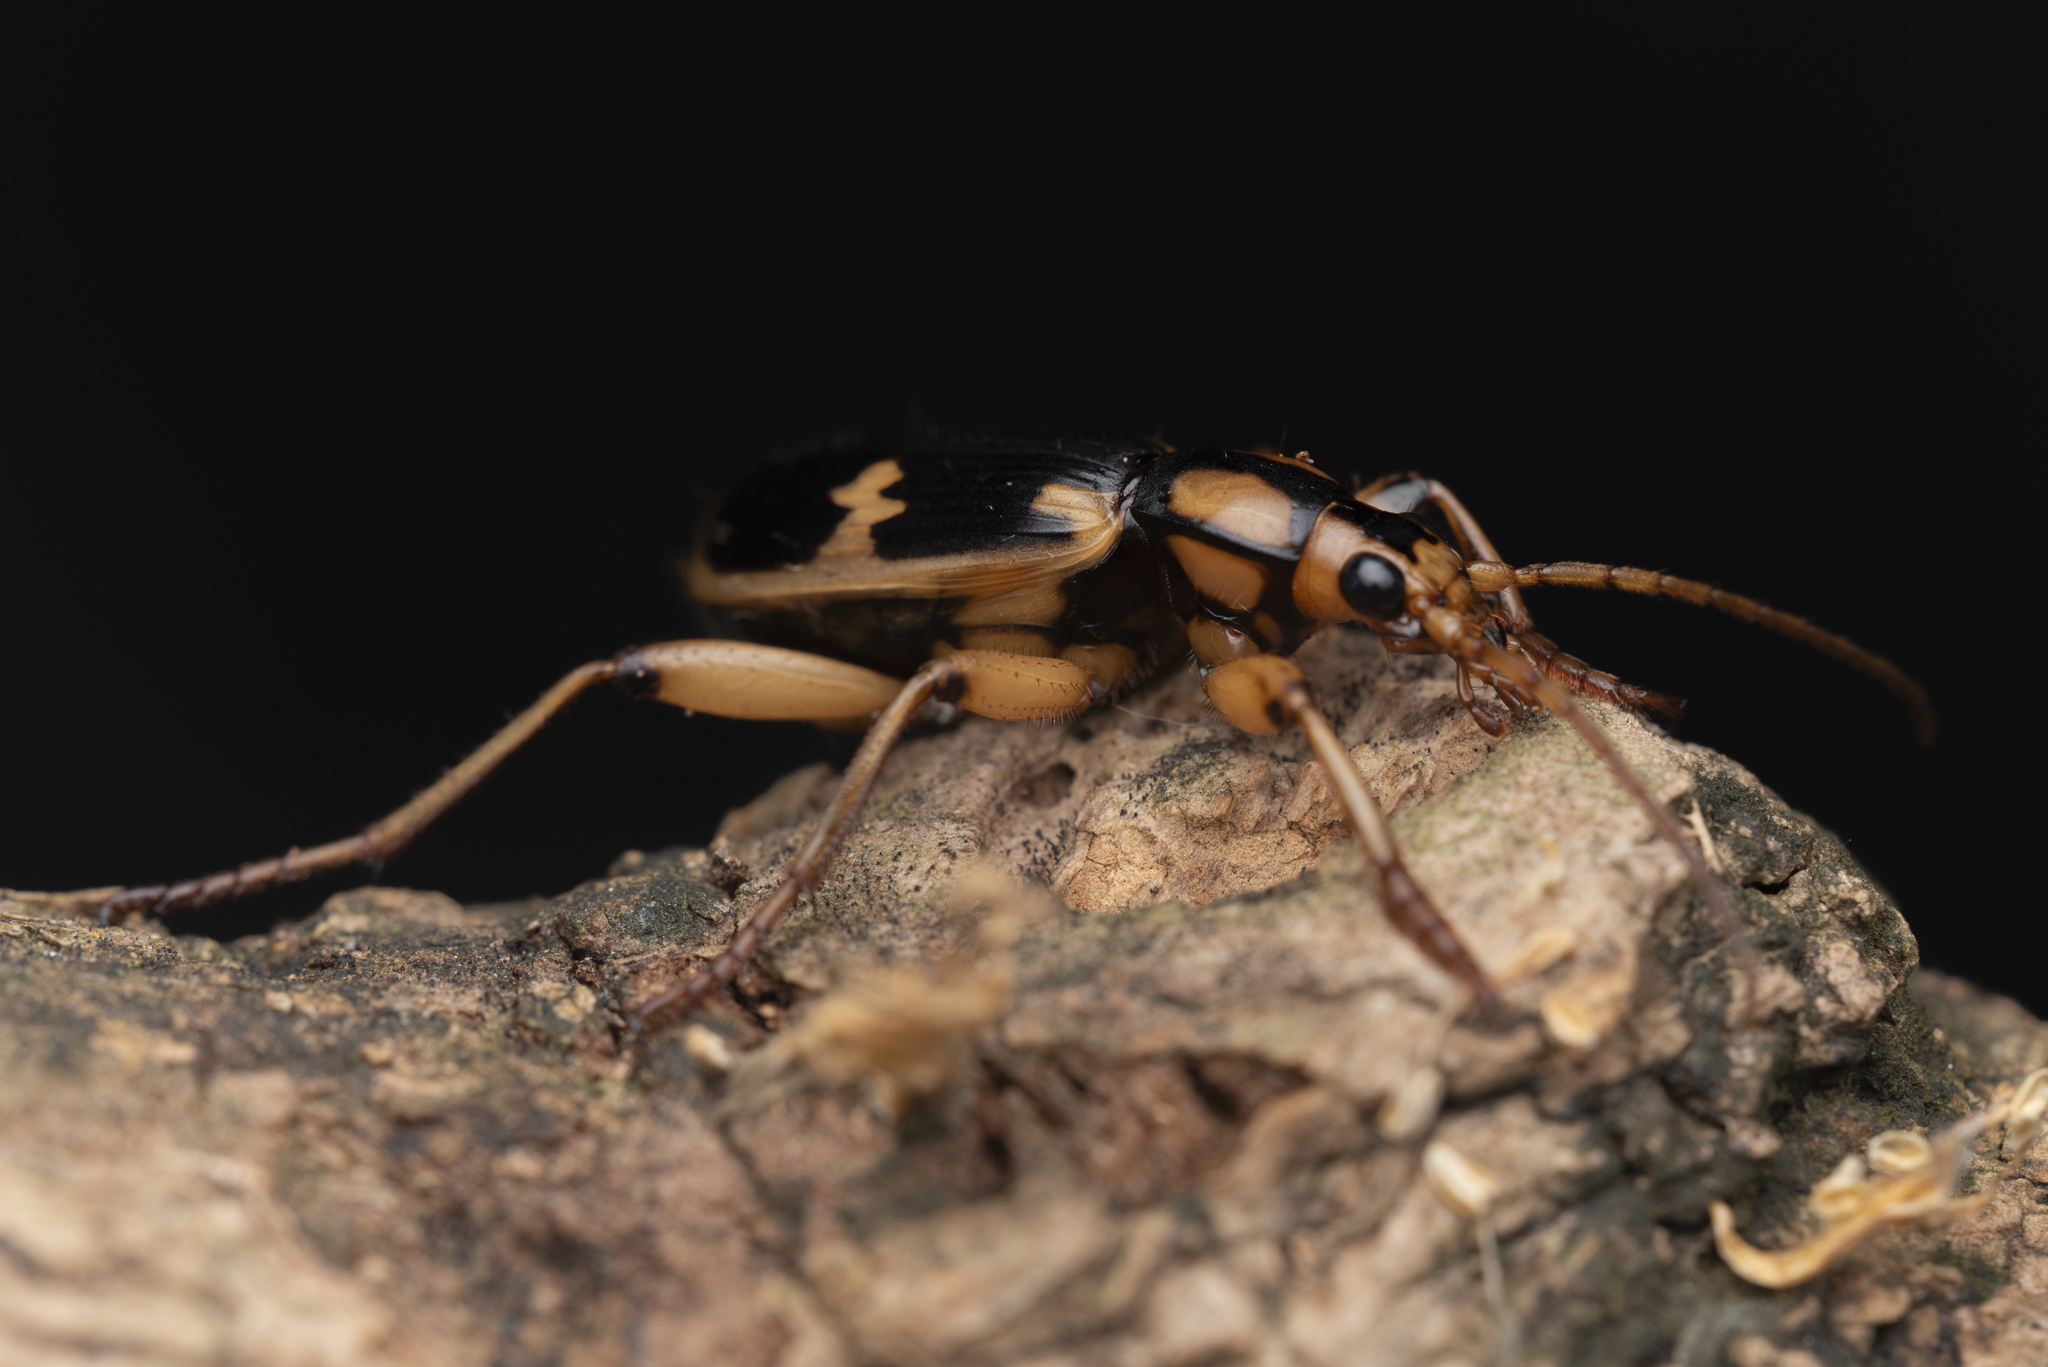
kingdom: Animalia
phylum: Arthropoda
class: Insecta
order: Coleoptera
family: Carabidae
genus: Pheropsophus
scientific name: Pheropsophus javanus
